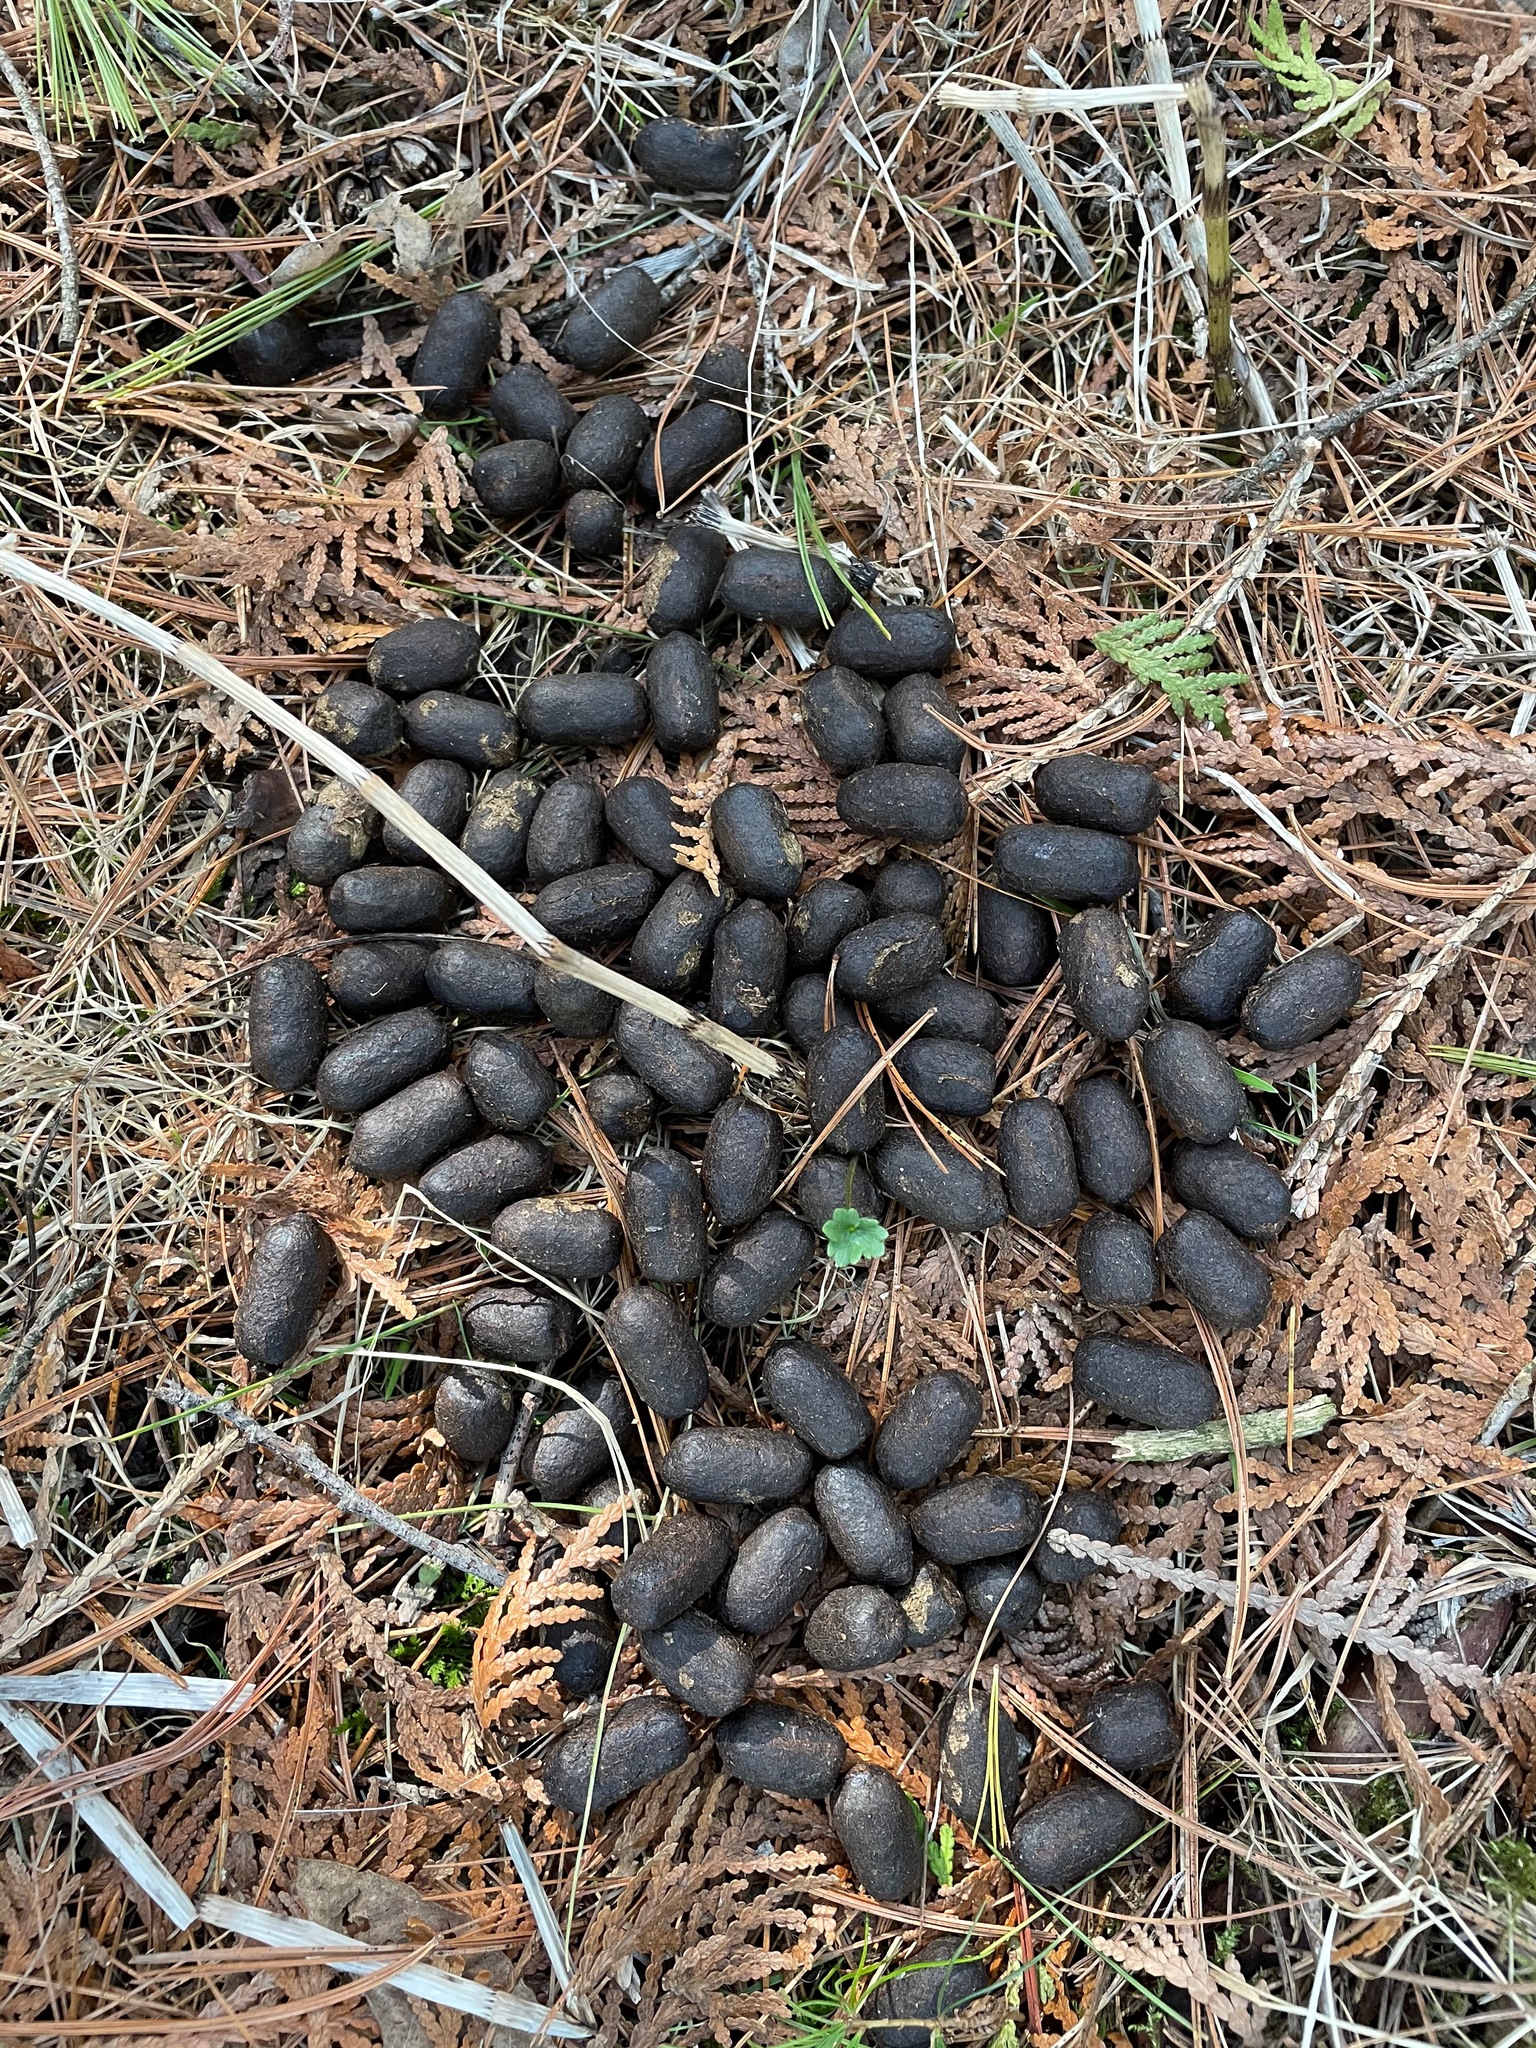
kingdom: Animalia
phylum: Chordata
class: Mammalia
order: Artiodactyla
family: Cervidae
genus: Odocoileus
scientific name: Odocoileus virginianus
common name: White-tailed deer
